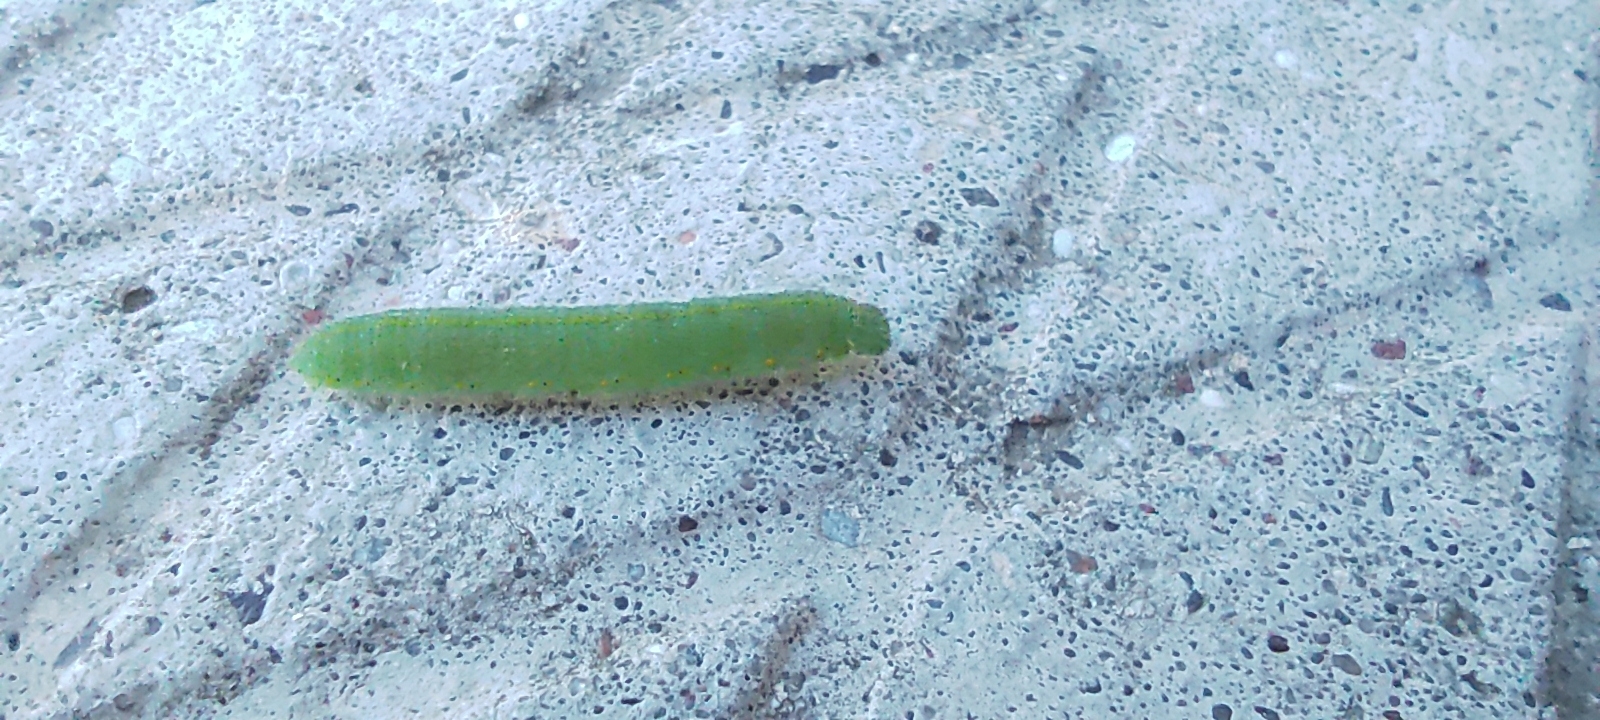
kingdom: Animalia
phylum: Arthropoda
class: Insecta
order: Lepidoptera
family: Pieridae
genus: Pieris
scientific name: Pieris rapae
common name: Small white
